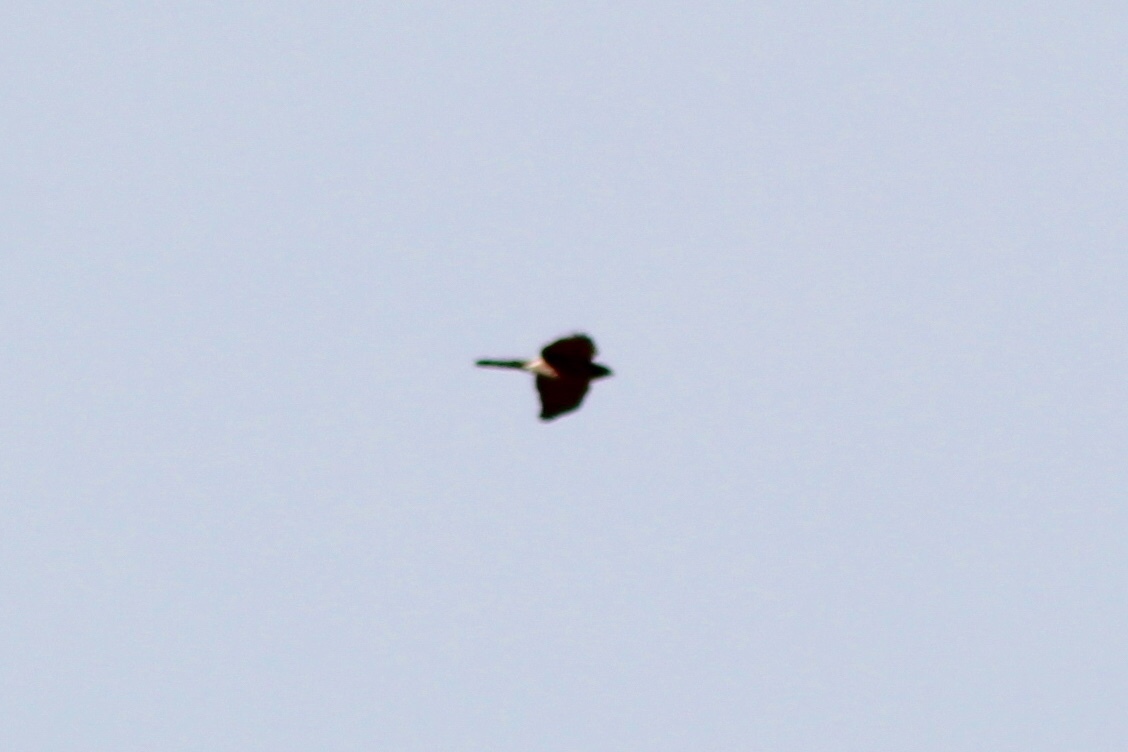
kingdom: Animalia
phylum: Chordata
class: Aves
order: Accipitriformes
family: Accipitridae
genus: Accipiter
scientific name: Accipiter cooperii
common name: Cooper's hawk
